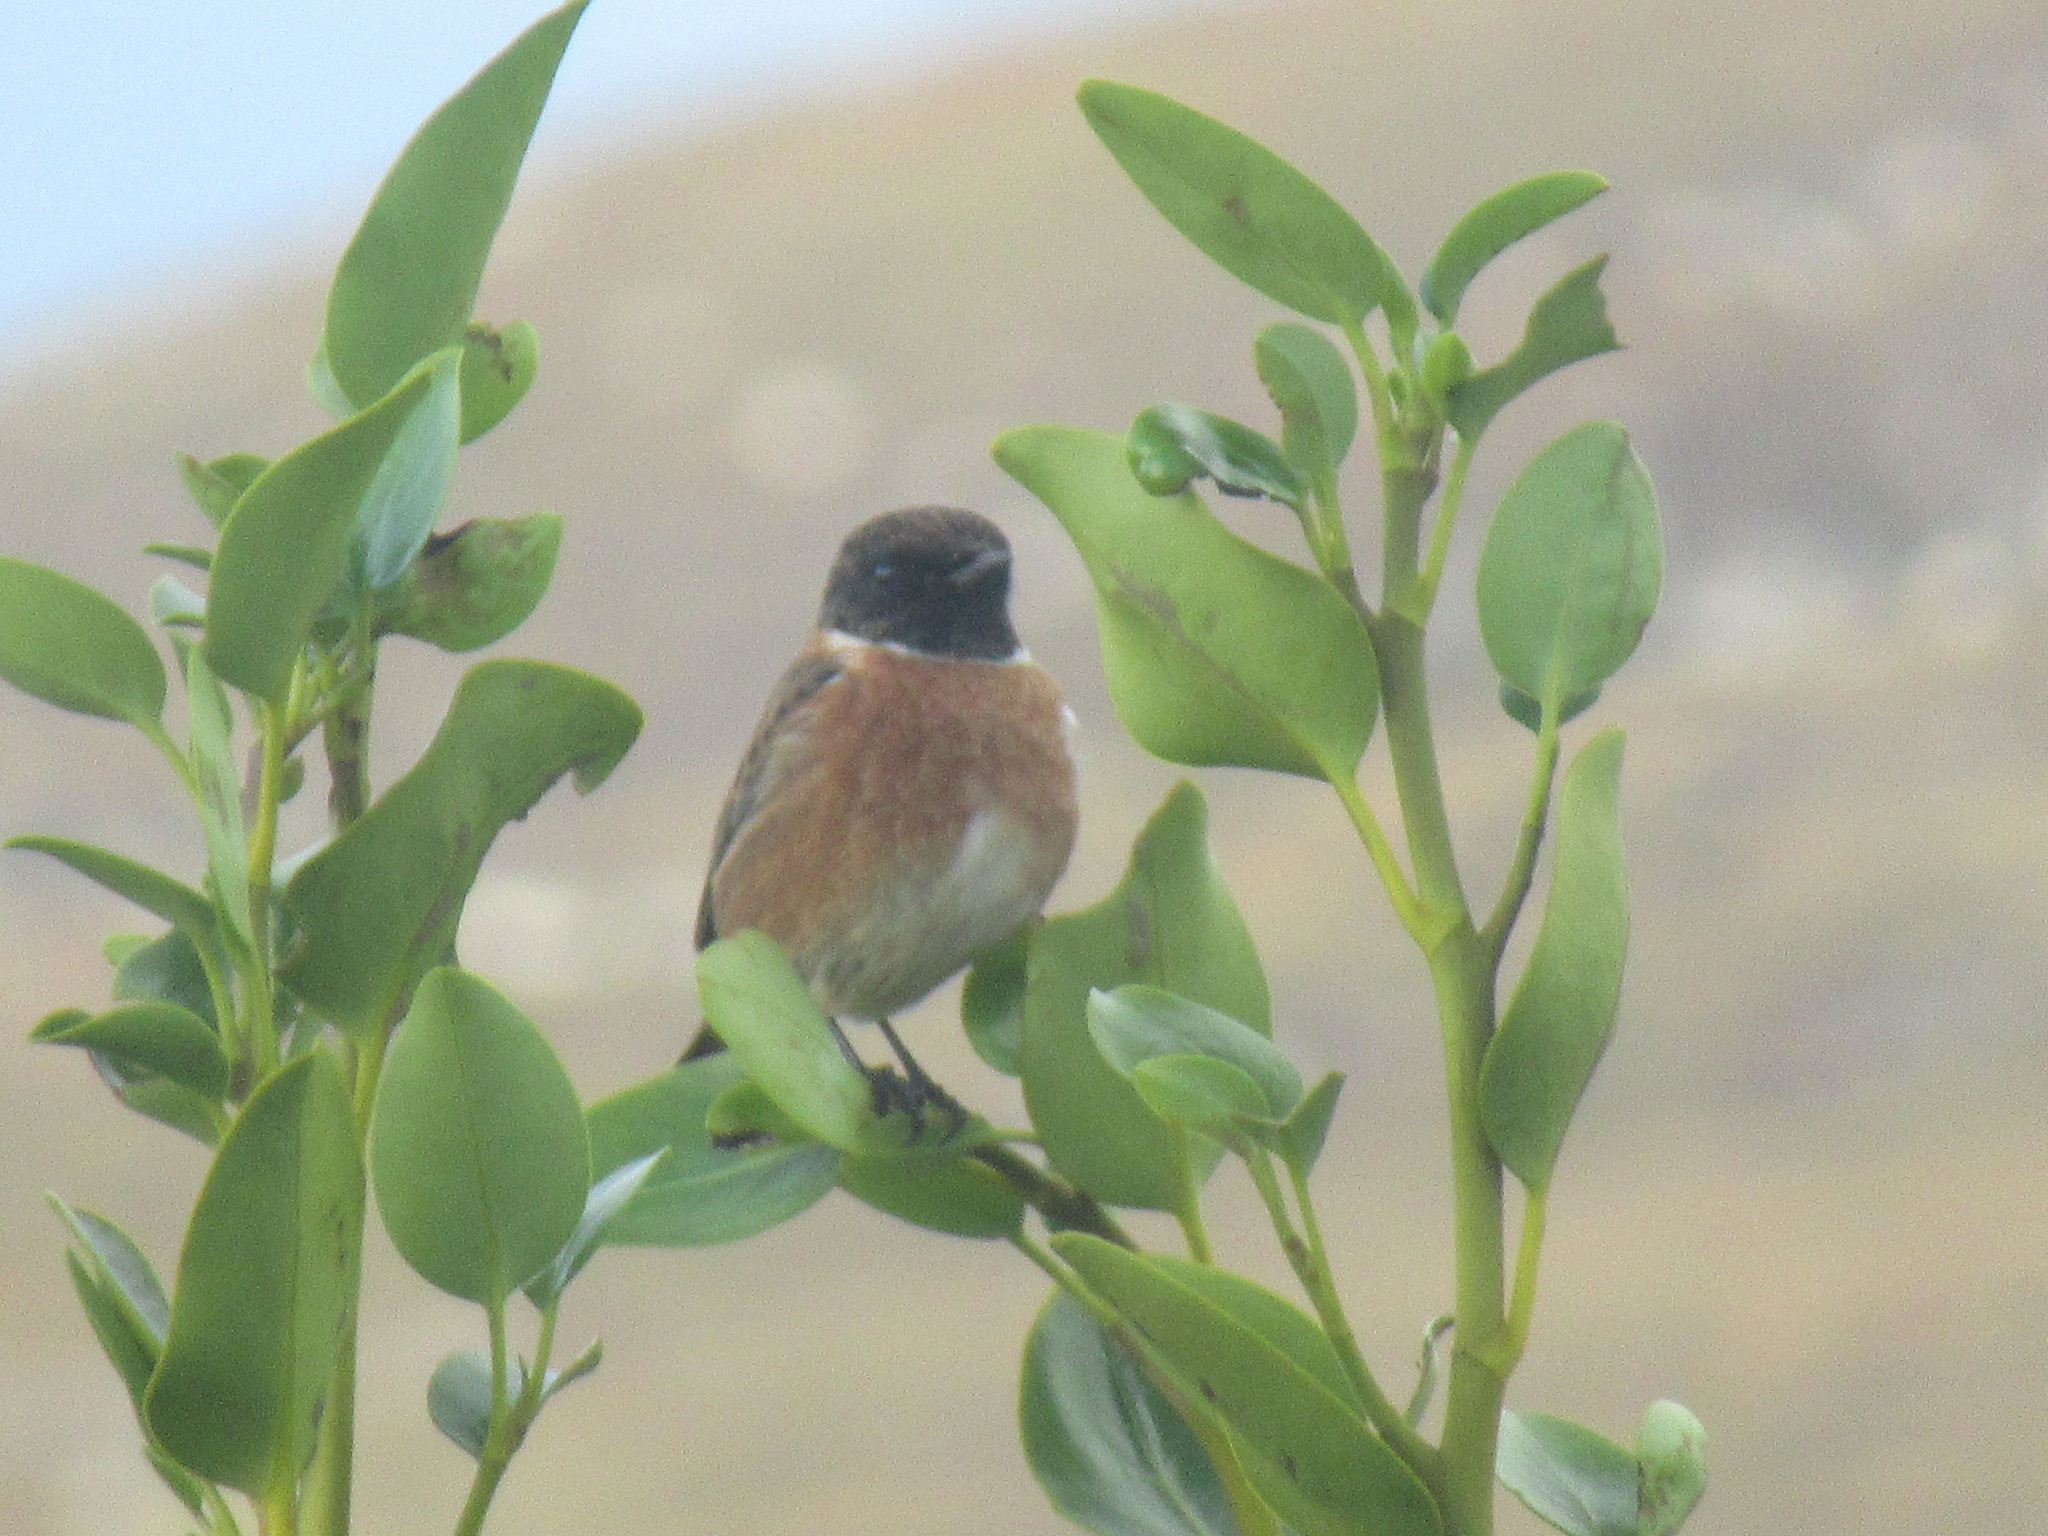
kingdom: Animalia
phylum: Chordata
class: Aves
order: Passeriformes
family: Muscicapidae
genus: Saxicola
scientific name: Saxicola rubicola
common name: European stonechat
